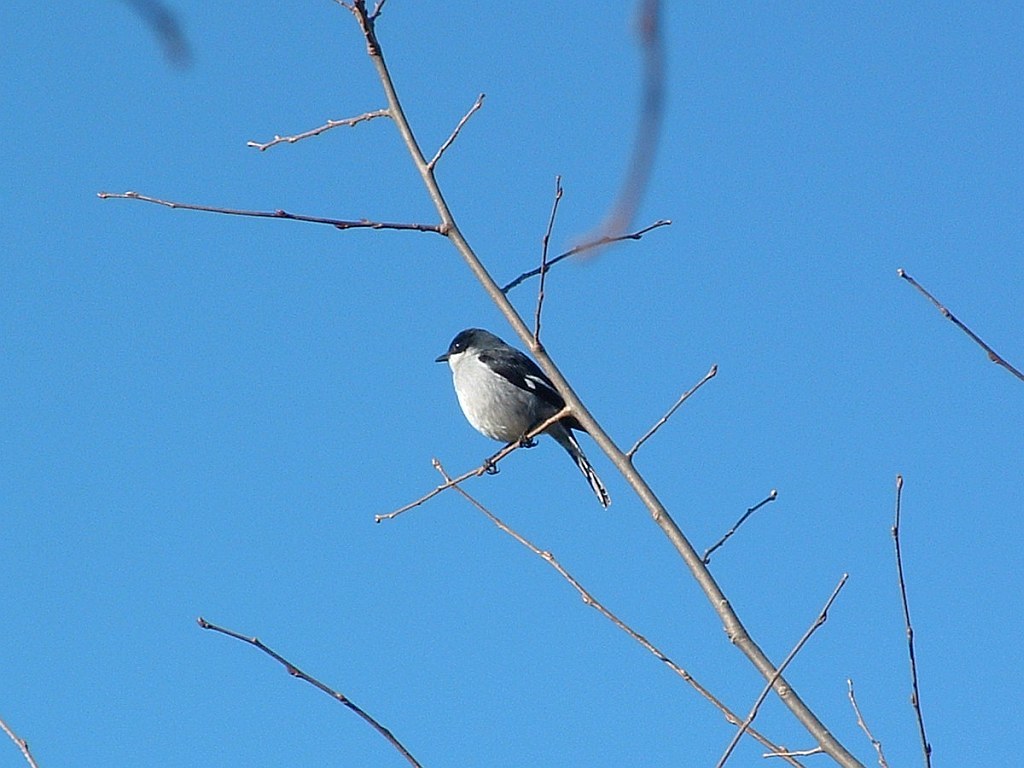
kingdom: Animalia
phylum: Chordata
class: Aves
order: Passeriformes
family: Muscicapidae
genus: Sigelus
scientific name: Sigelus silens
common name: Fiscal flycatcher
